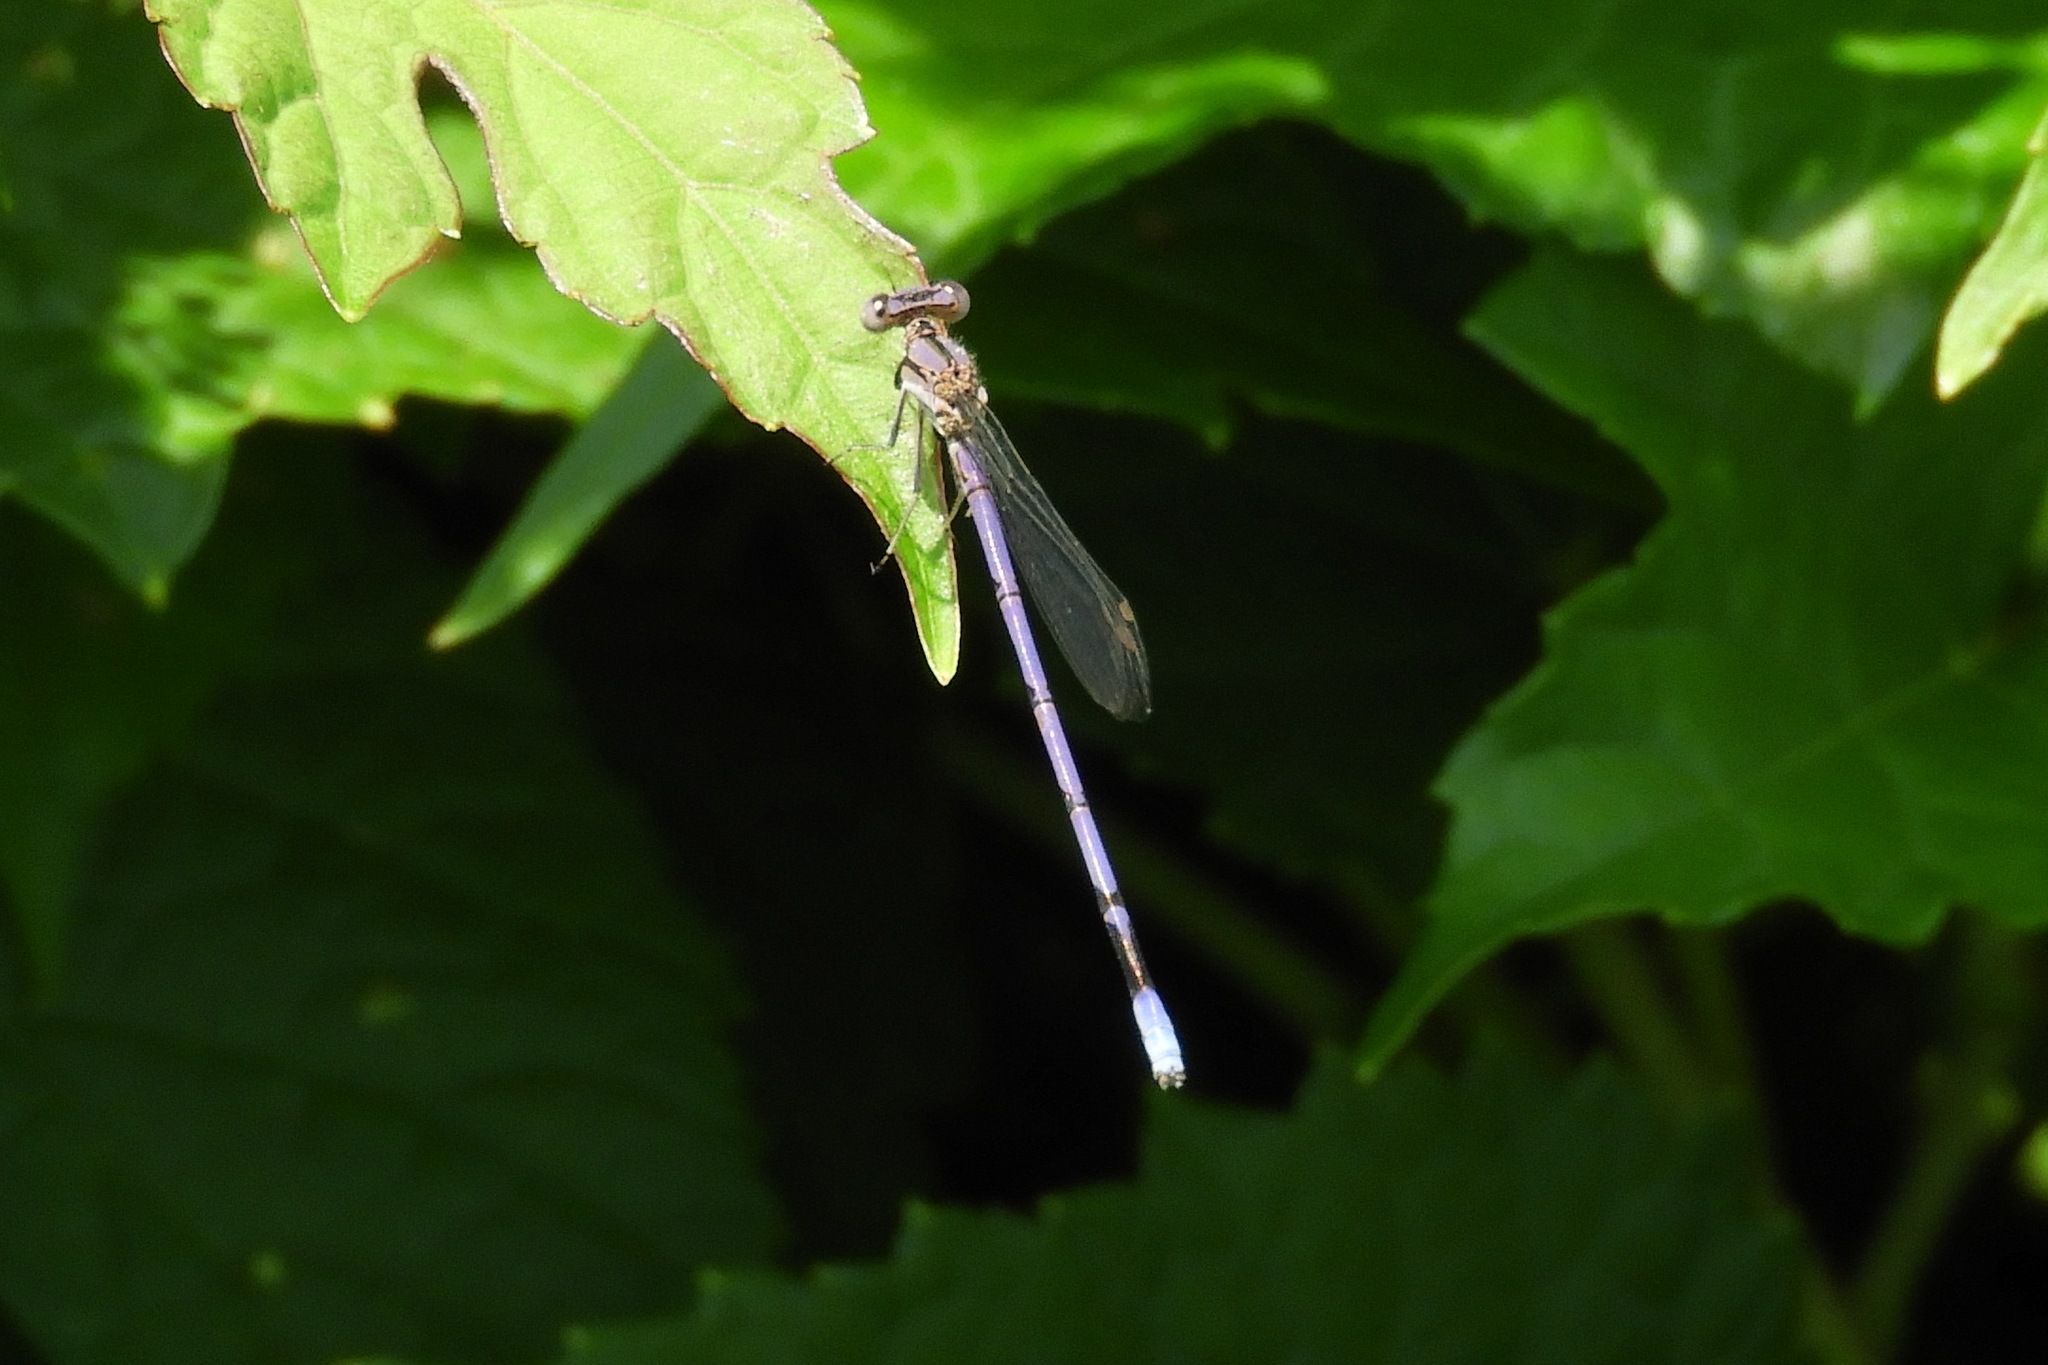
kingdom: Animalia
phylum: Arthropoda
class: Insecta
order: Odonata
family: Coenagrionidae
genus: Argia
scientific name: Argia fumipennis
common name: Variable dancer
